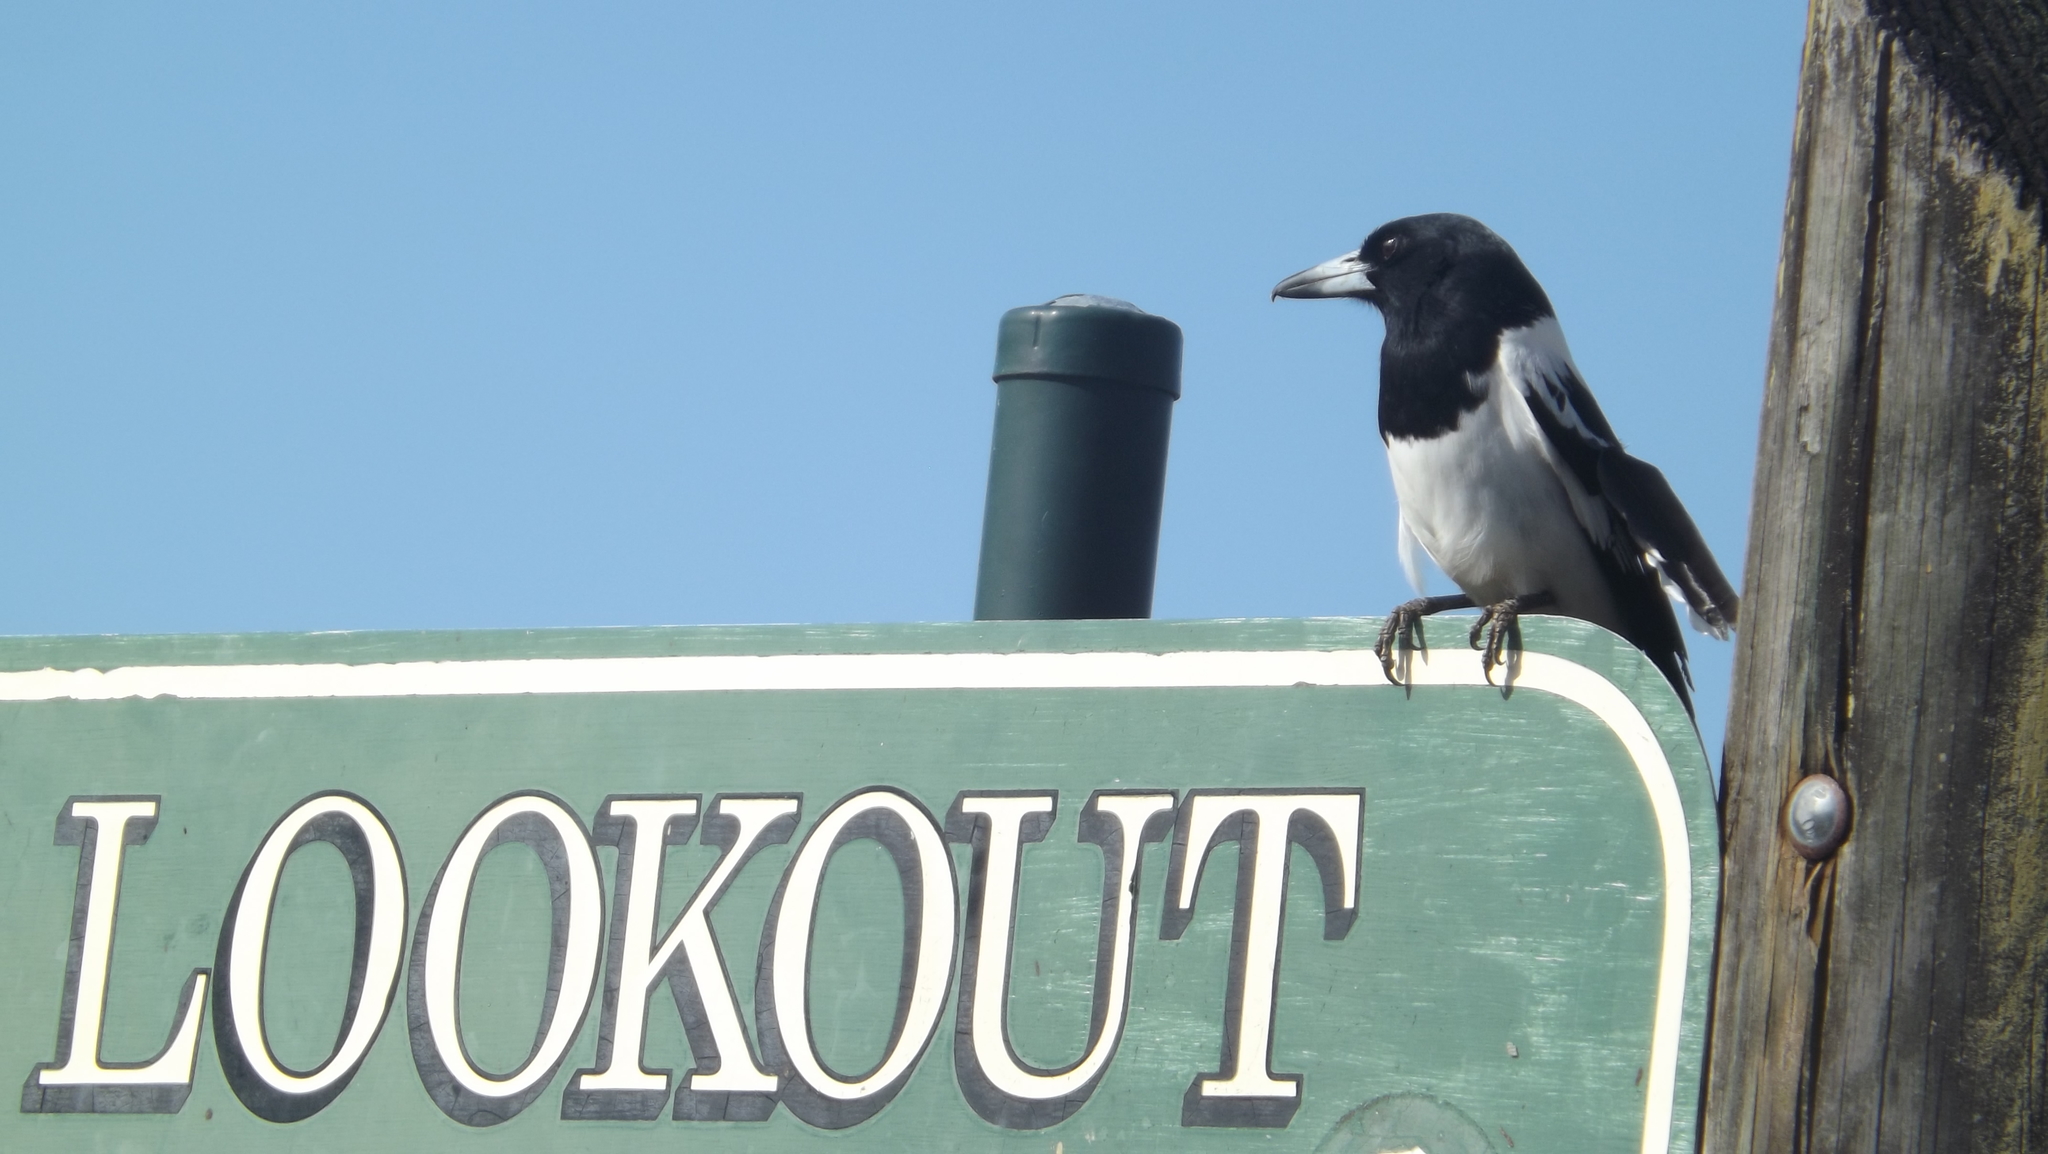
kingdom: Animalia
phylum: Chordata
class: Aves
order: Passeriformes
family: Cracticidae
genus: Cracticus
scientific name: Cracticus nigrogularis
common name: Pied butcherbird
